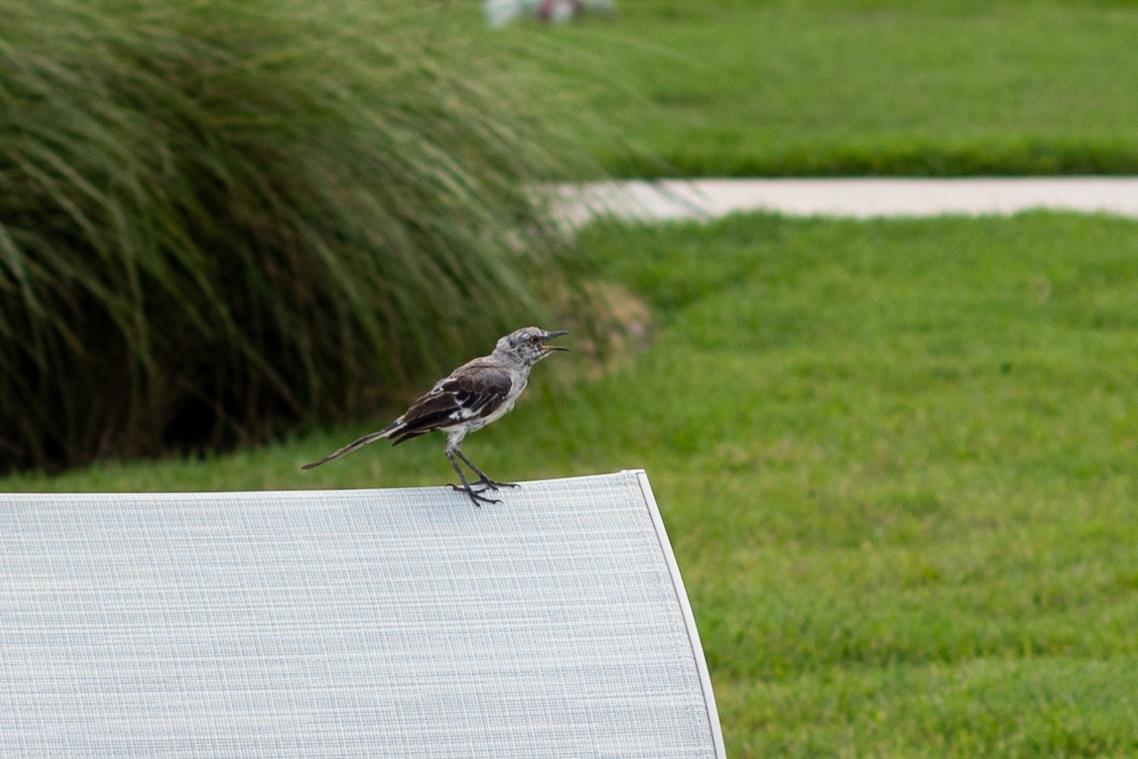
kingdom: Animalia
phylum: Chordata
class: Aves
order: Passeriformes
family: Mimidae
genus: Mimus
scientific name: Mimus polyglottos
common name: Northern mockingbird
